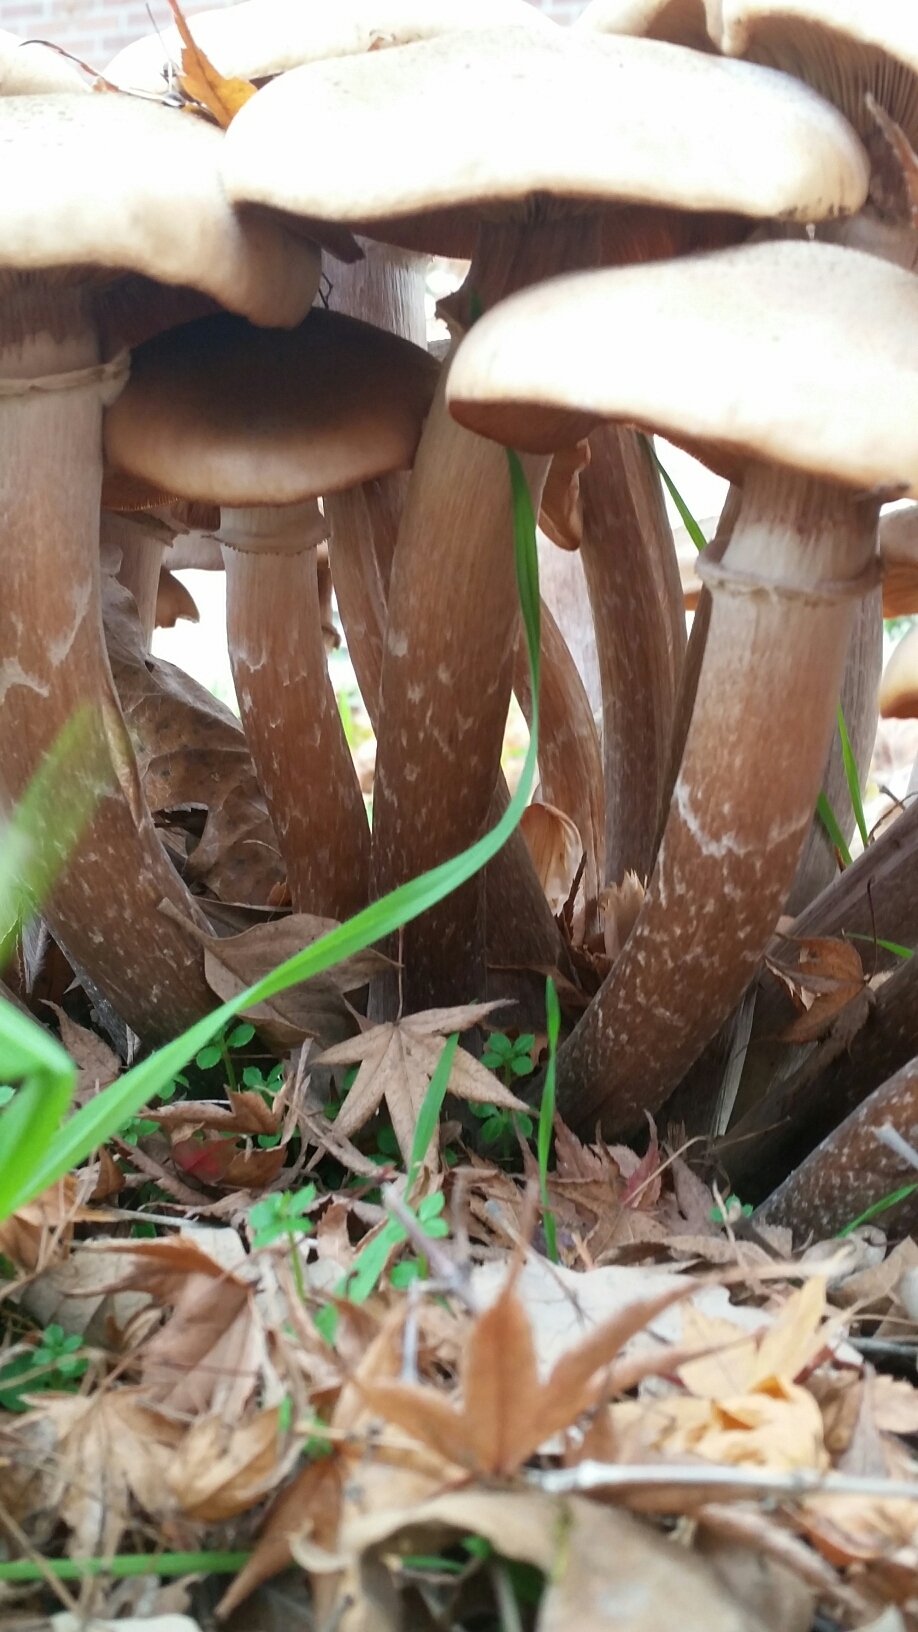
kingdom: Fungi
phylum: Basidiomycota
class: Agaricomycetes
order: Agaricales
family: Physalacriaceae
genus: Armillaria
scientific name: Armillaria mellea
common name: Honey fungus
